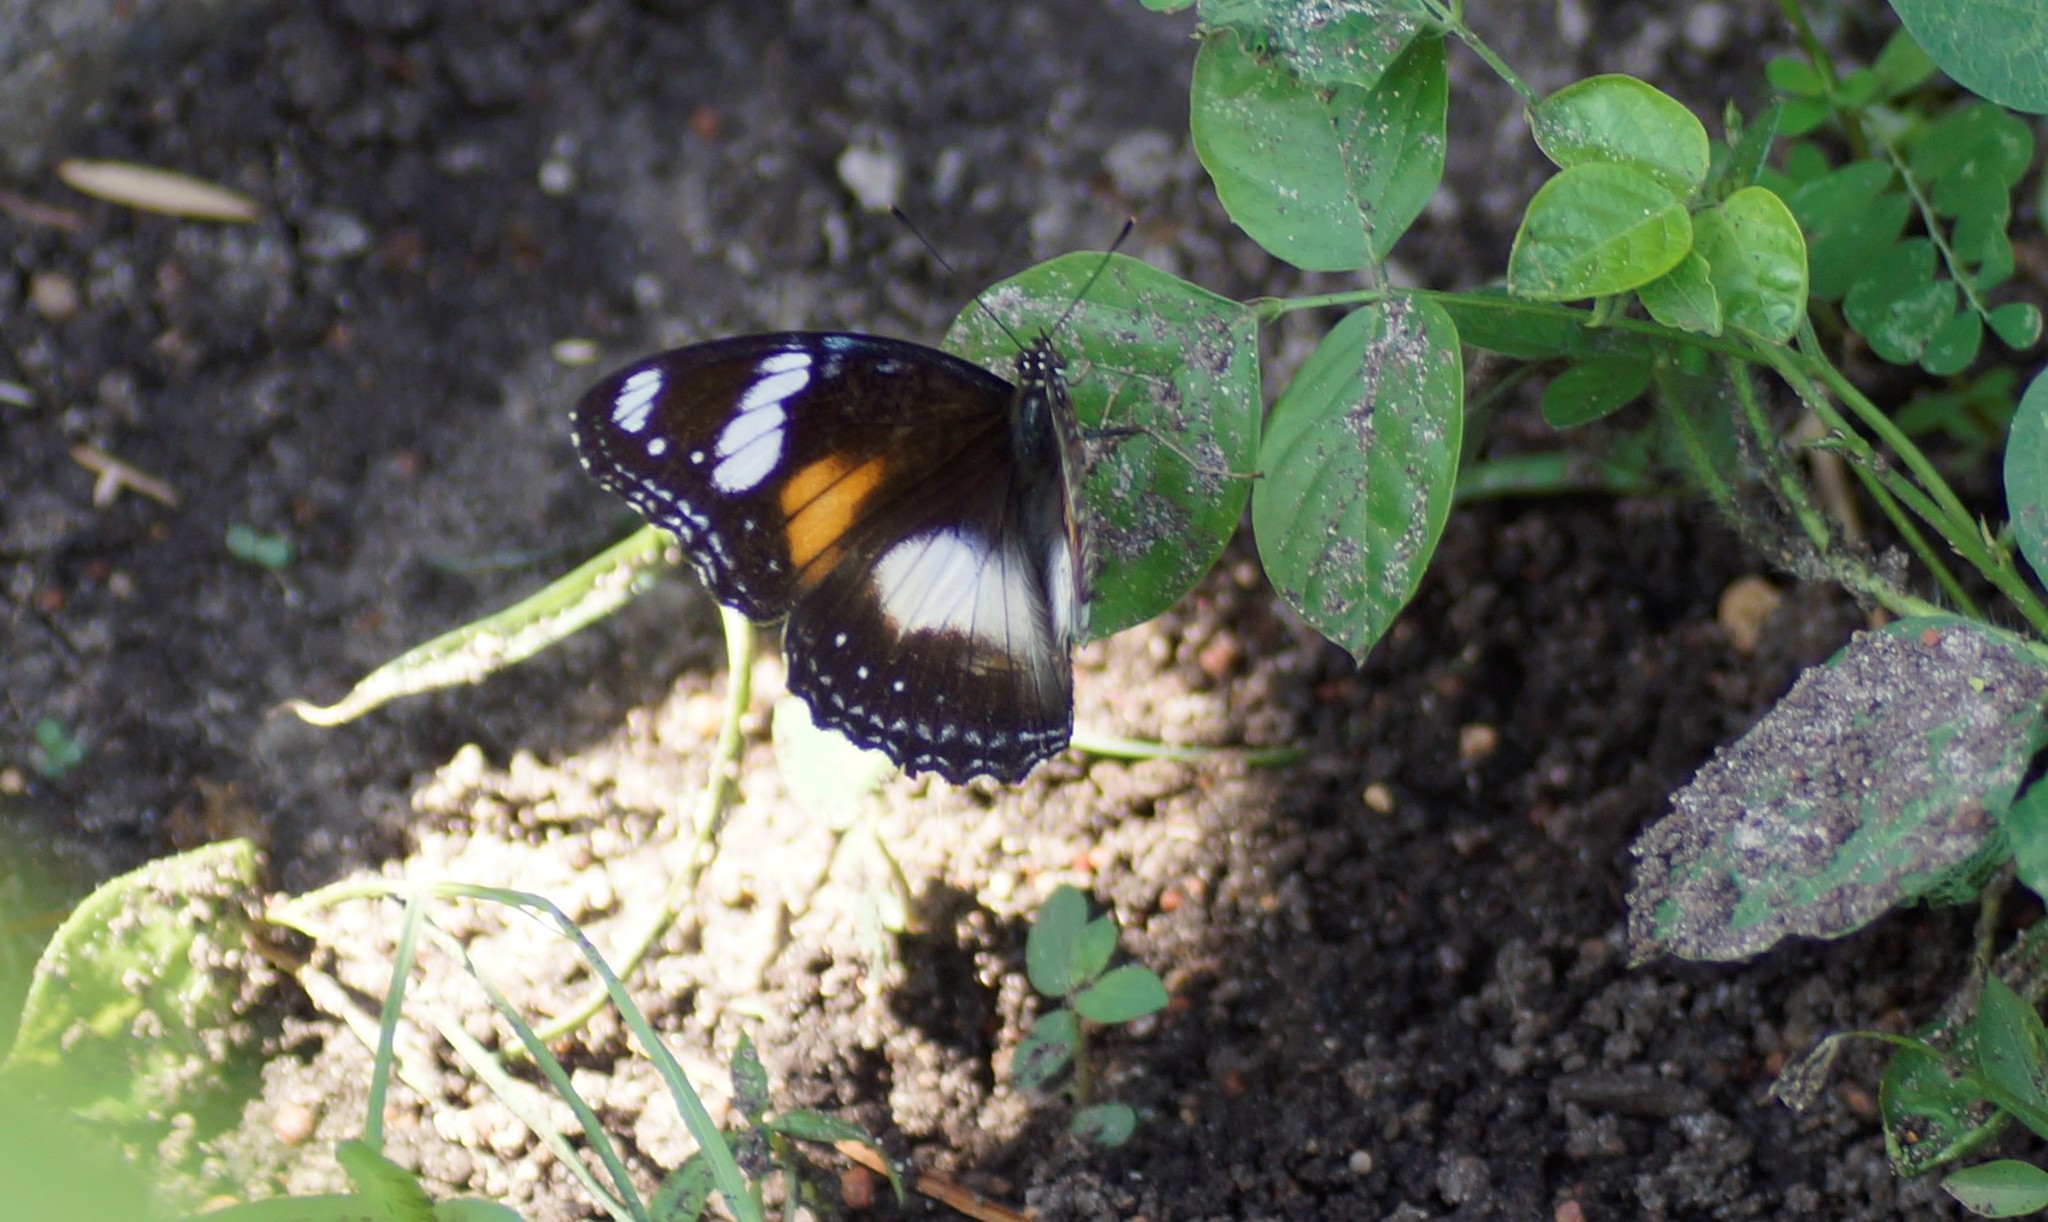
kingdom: Animalia
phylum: Arthropoda
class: Insecta
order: Lepidoptera
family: Nymphalidae
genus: Hypolimnas
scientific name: Hypolimnas bolina
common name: Great eggfly
